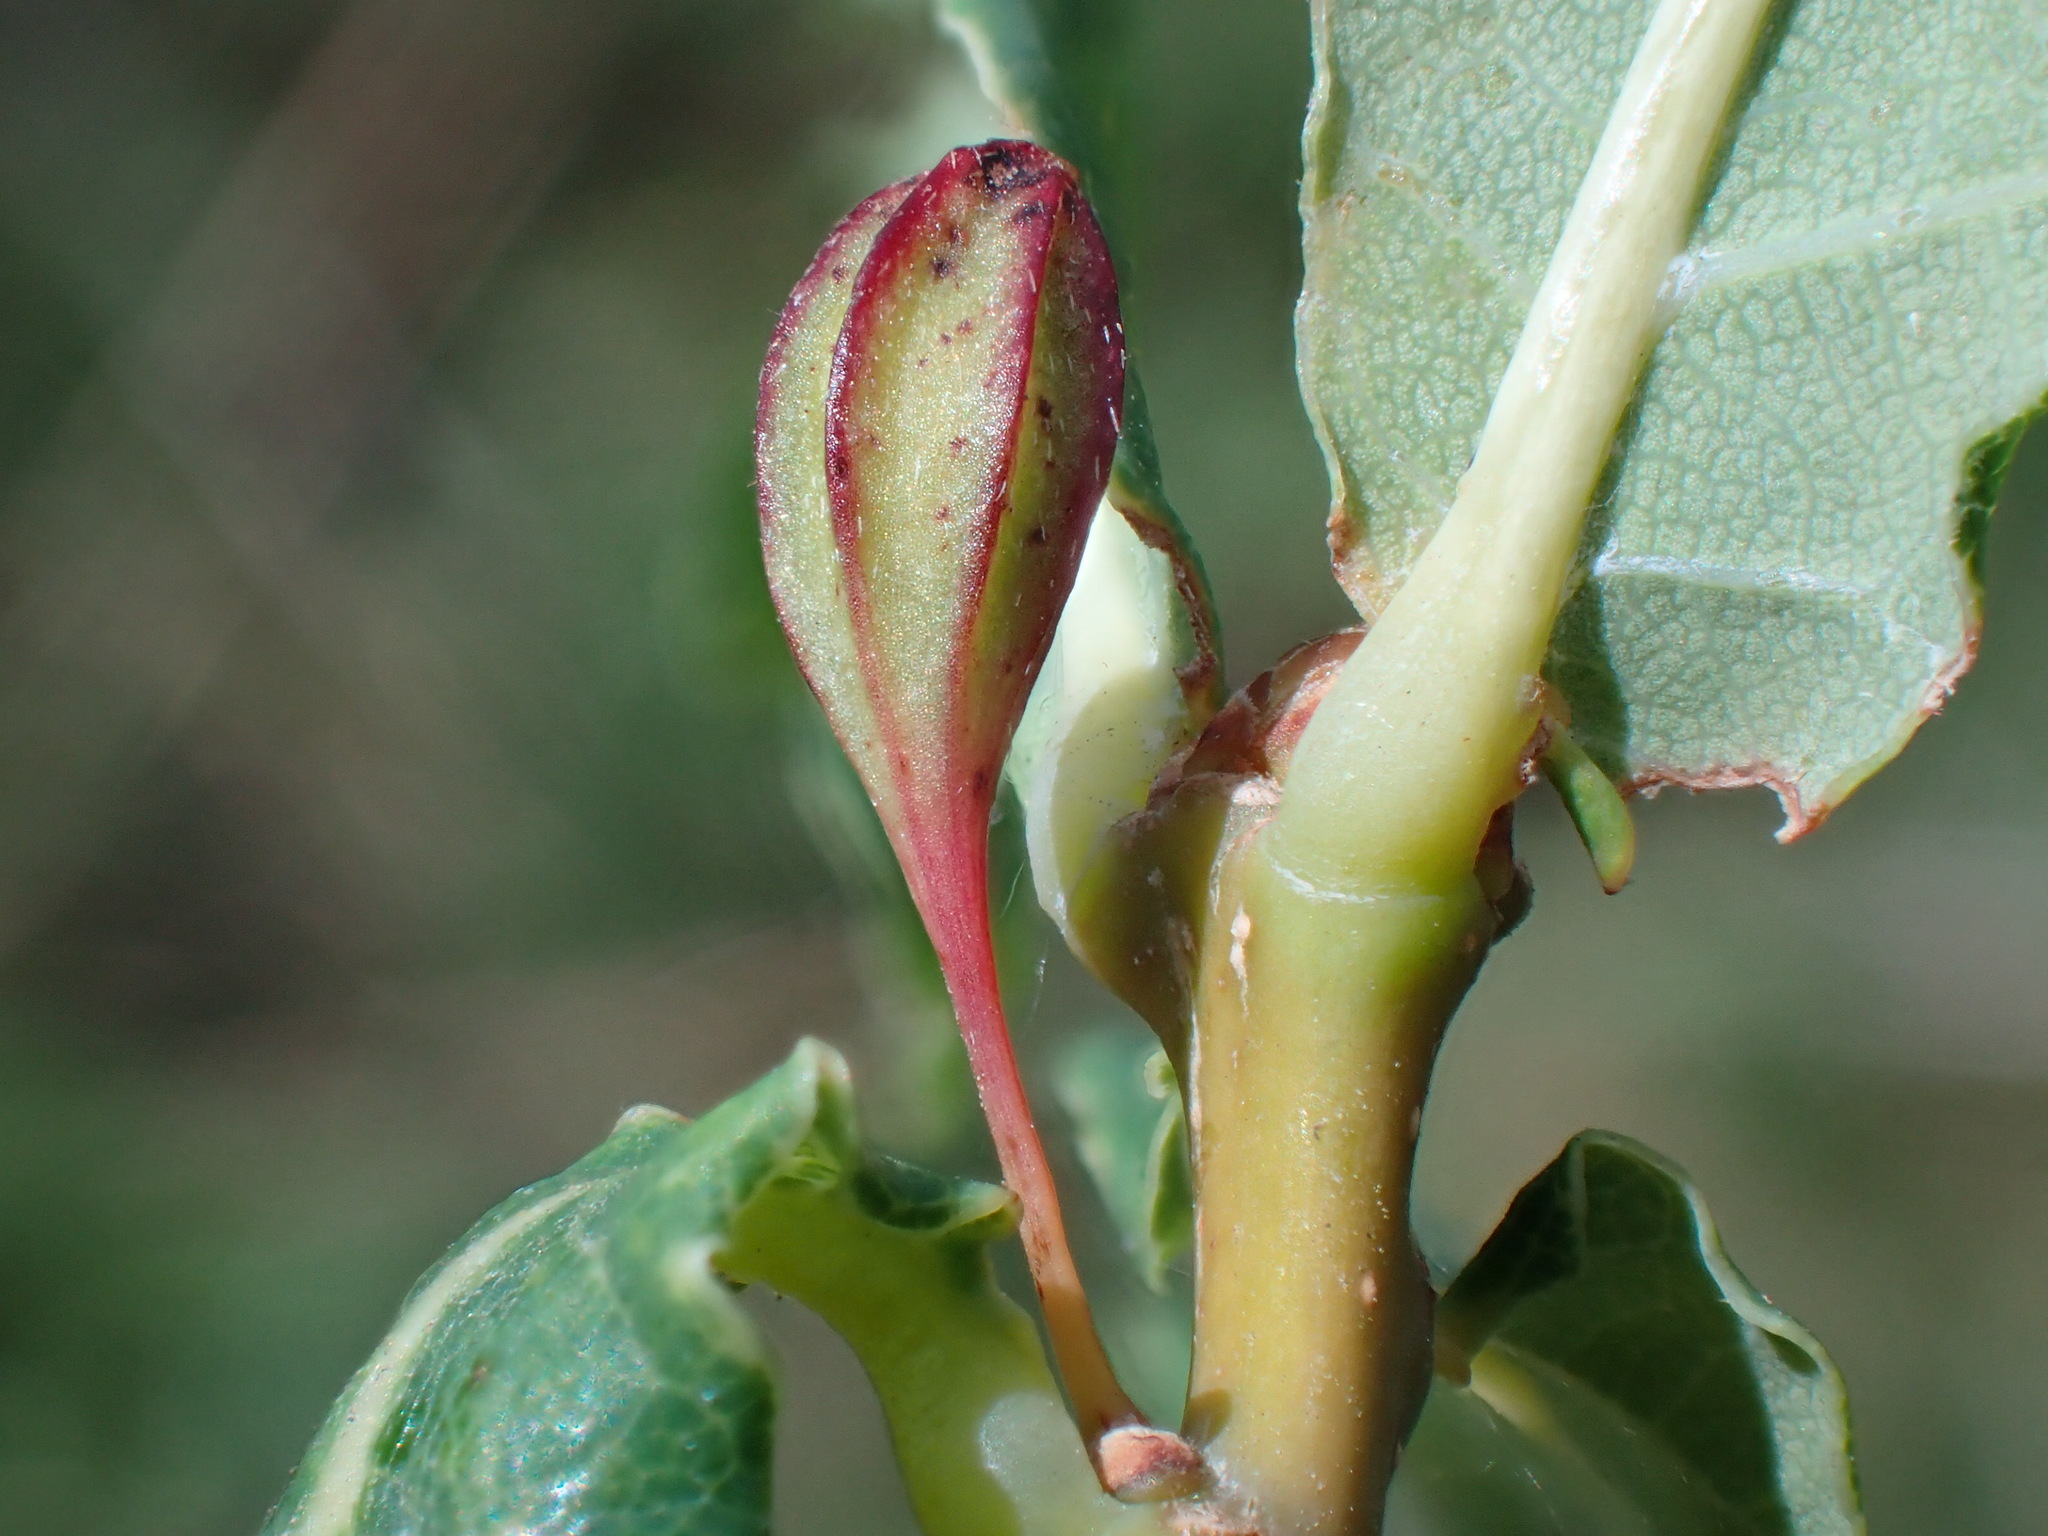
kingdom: Animalia
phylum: Arthropoda
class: Insecta
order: Hymenoptera
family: Cynipidae
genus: Andricus
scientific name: Andricus amenti
